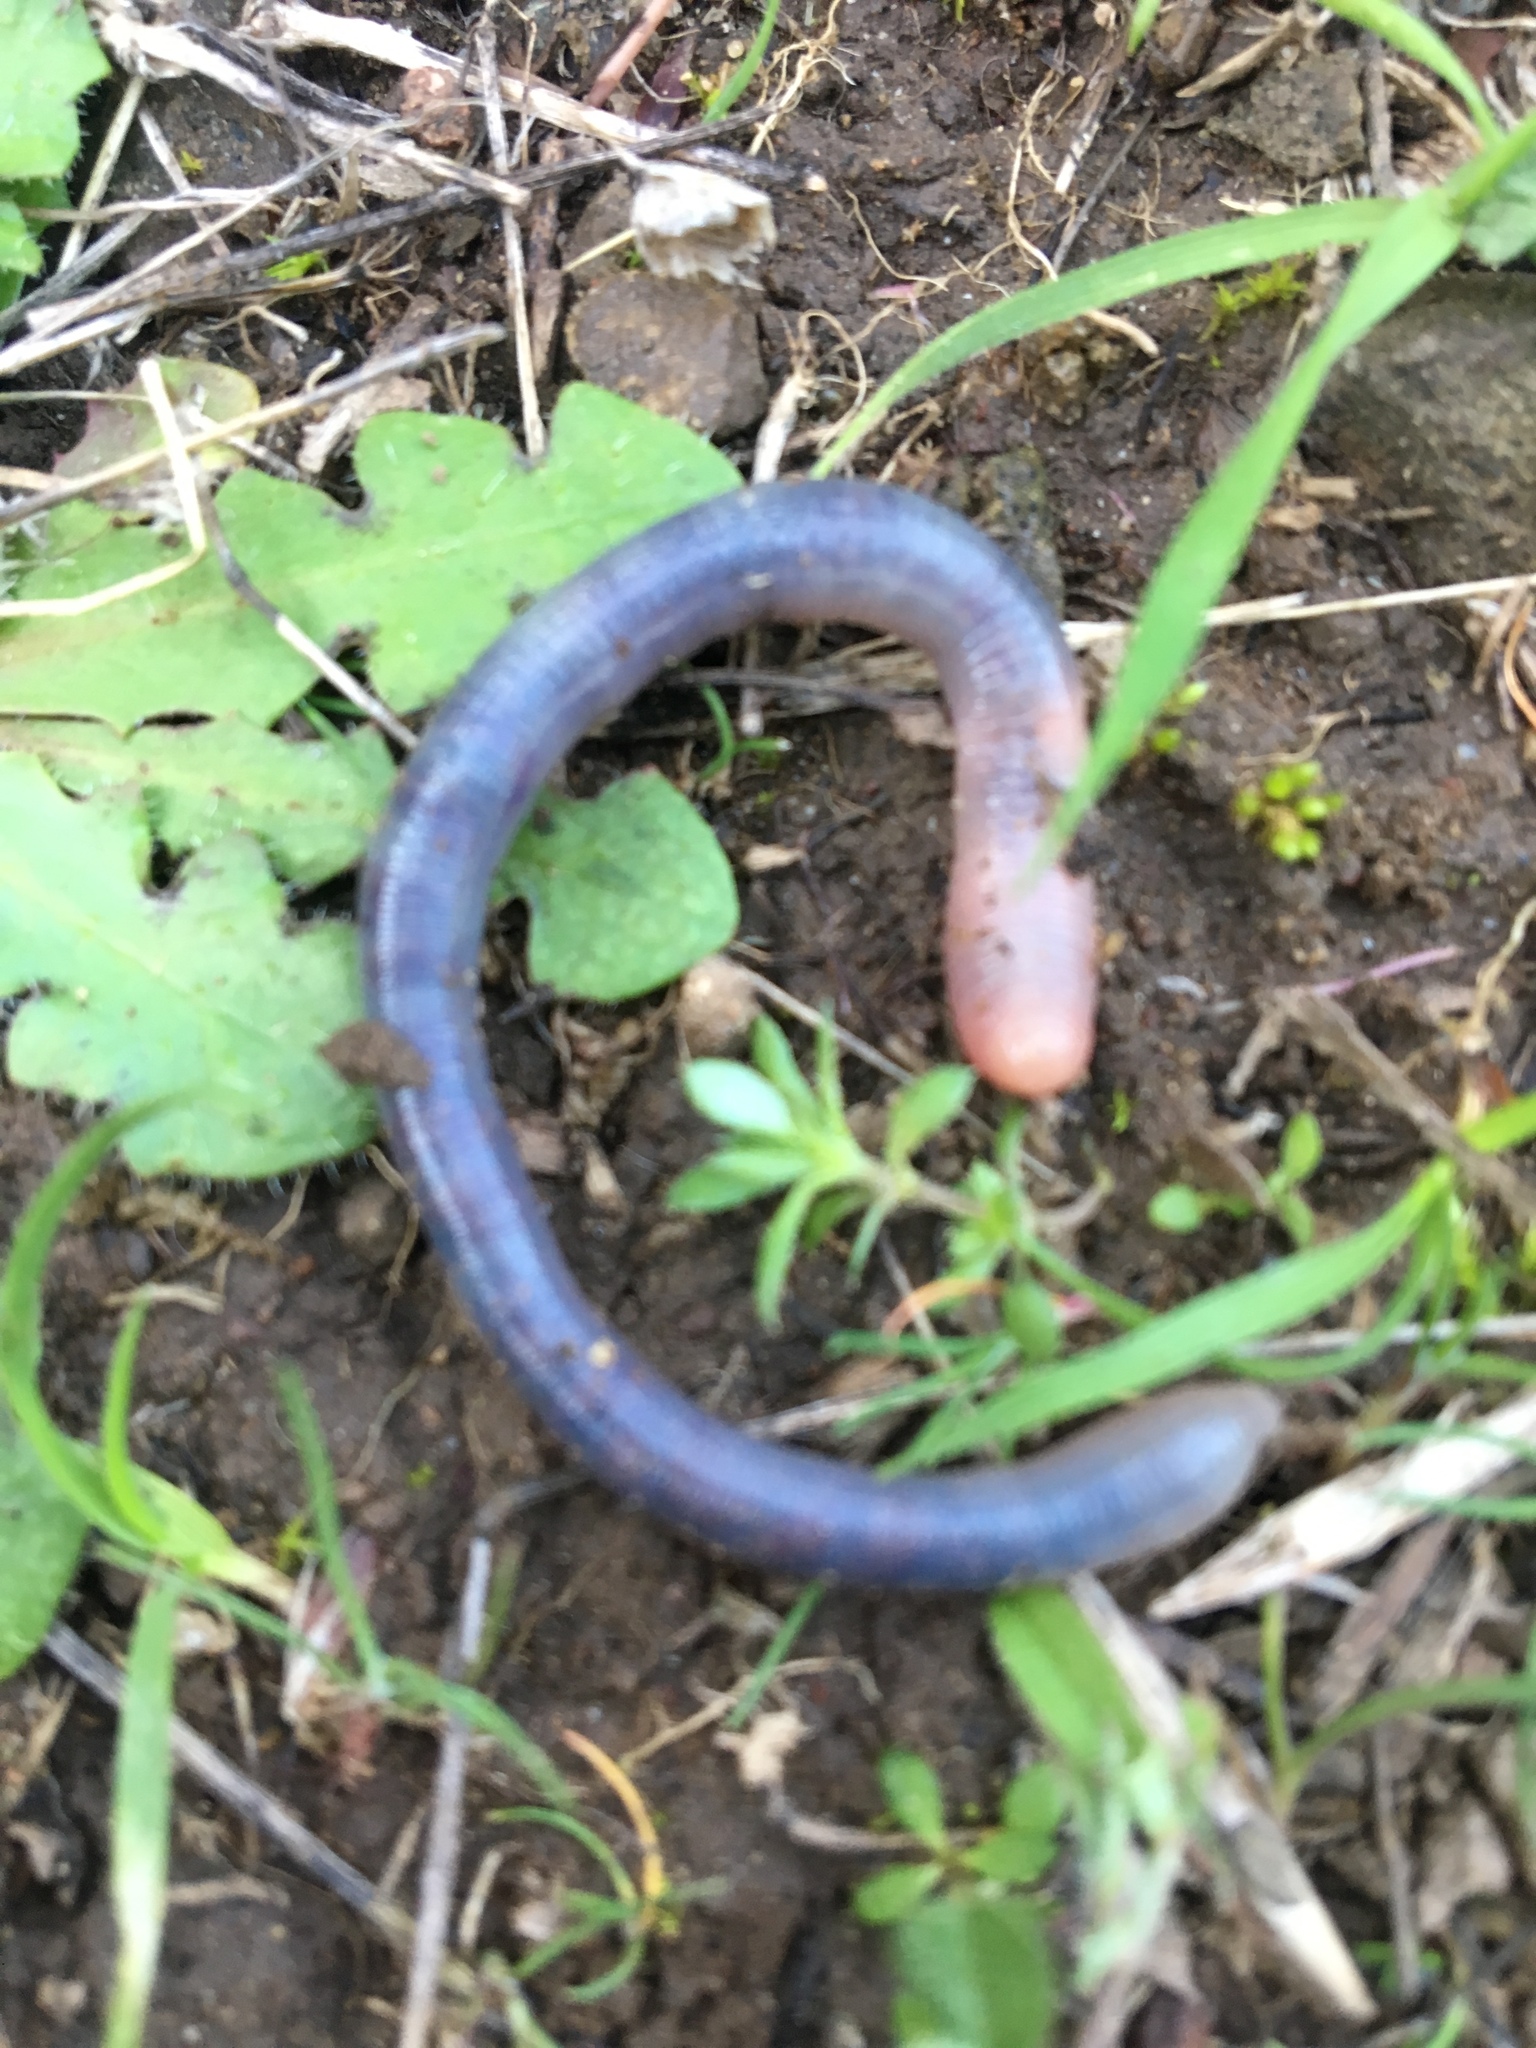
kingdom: Animalia
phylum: Annelida
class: Clitellata
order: Crassiclitellata
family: Lumbricidae
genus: Lumbricus
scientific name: Lumbricus terrestris
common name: Common earthworm
